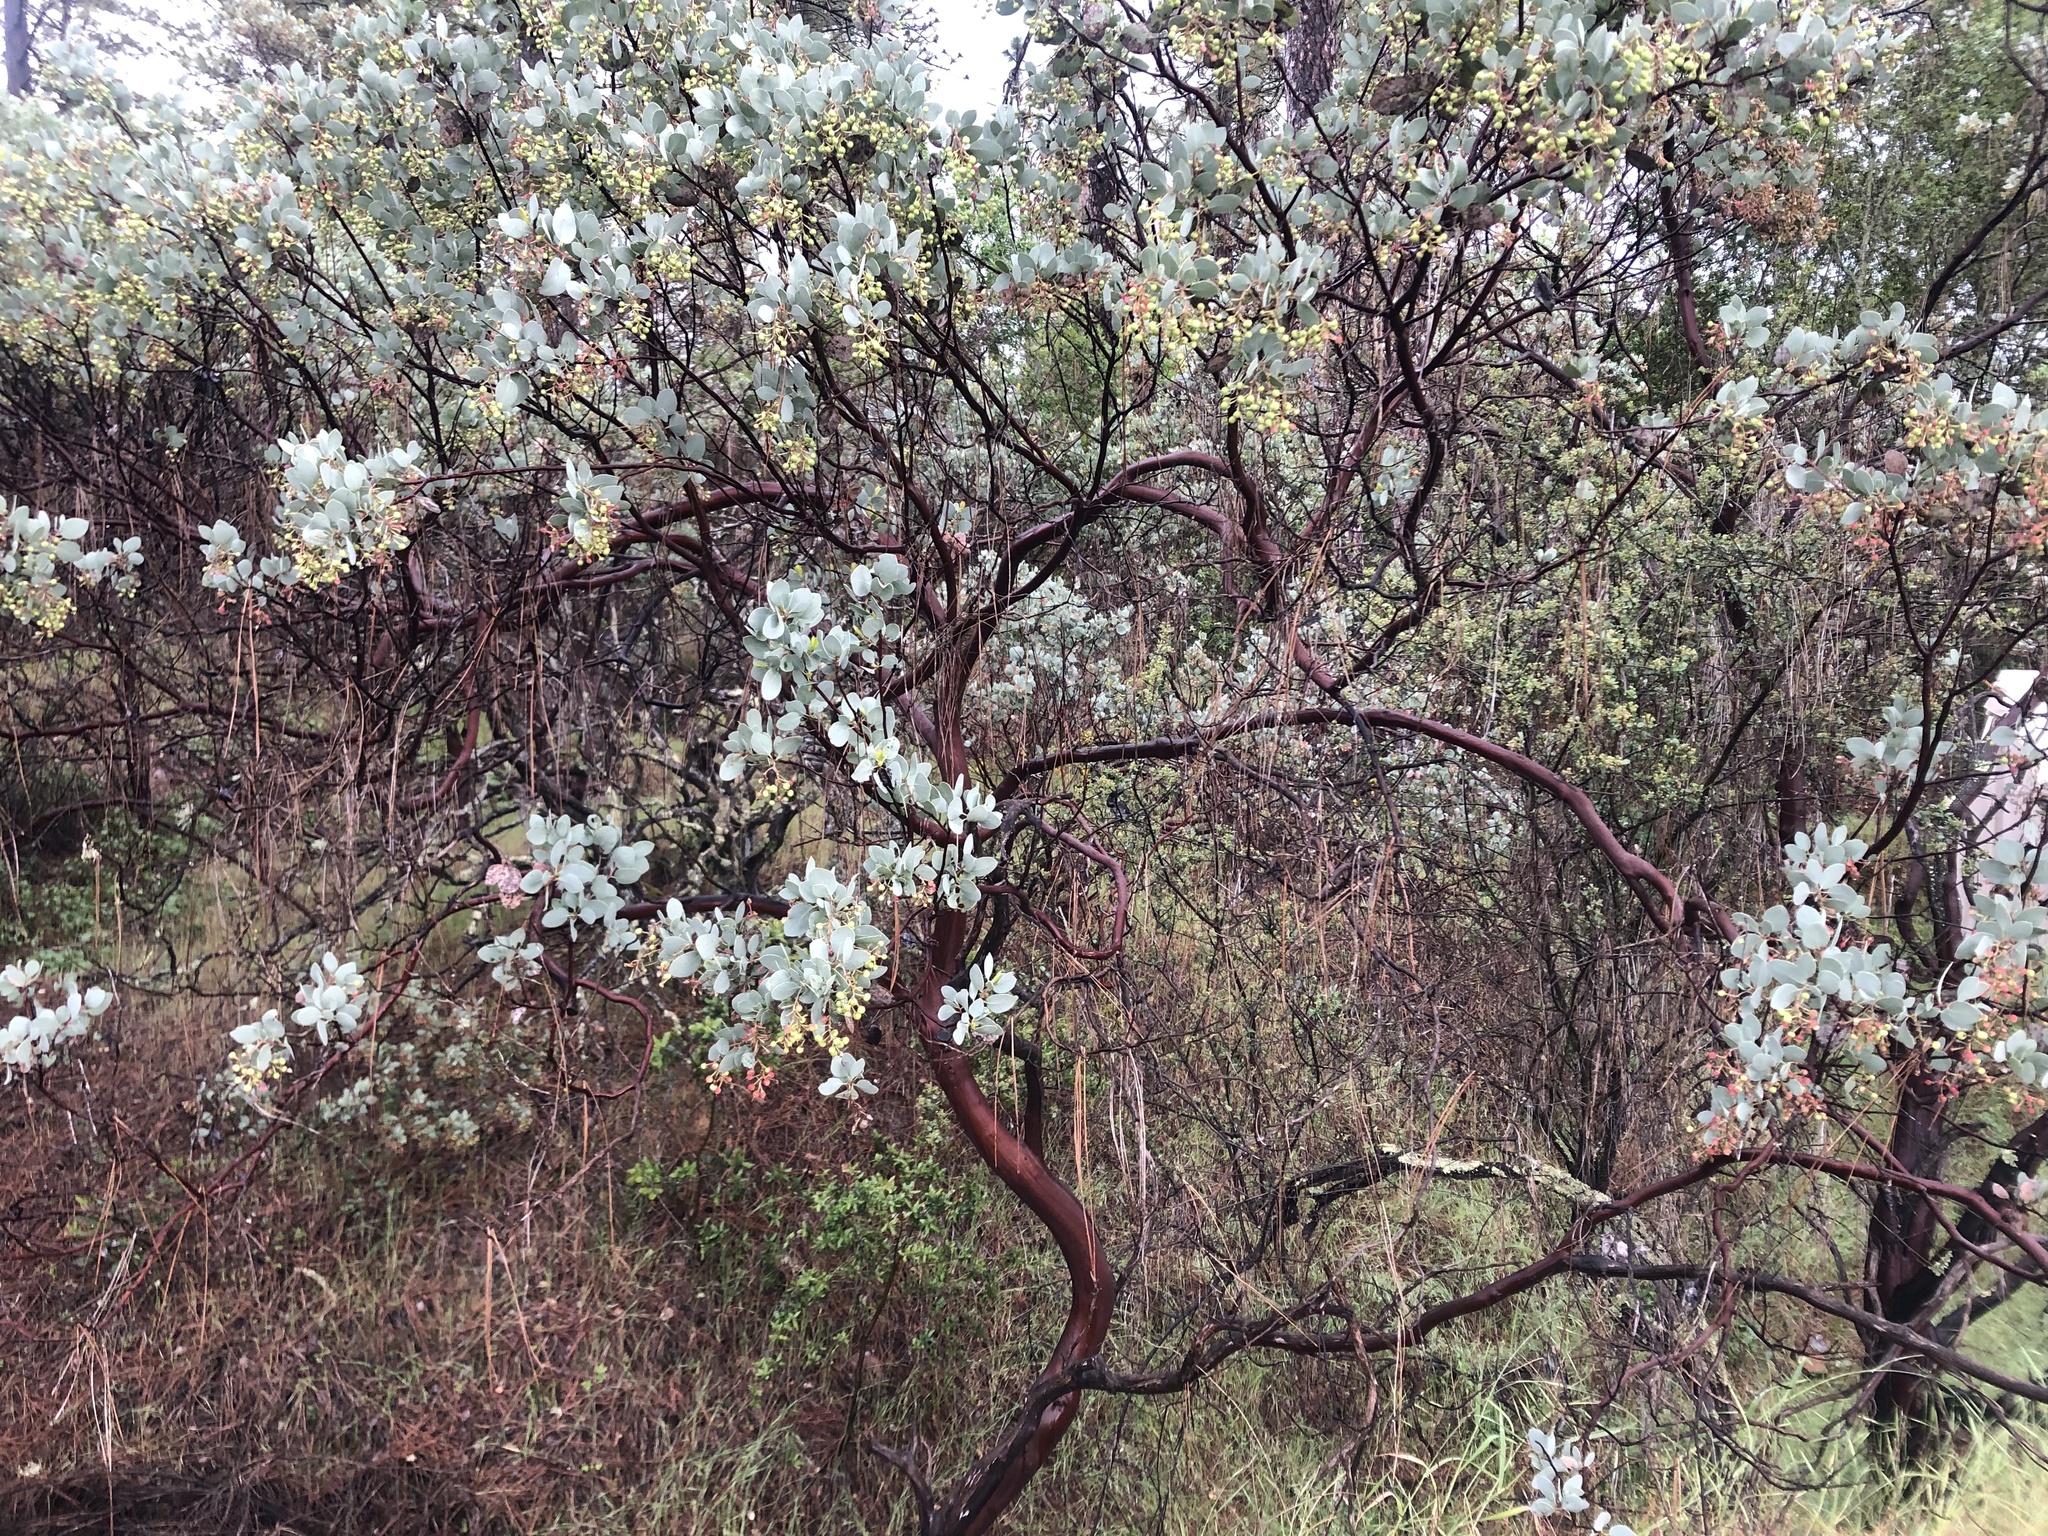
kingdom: Plantae
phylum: Tracheophyta
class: Magnoliopsida
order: Ericales
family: Ericaceae
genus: Arctostaphylos
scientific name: Arctostaphylos viscida
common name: White-leaf manzanita
